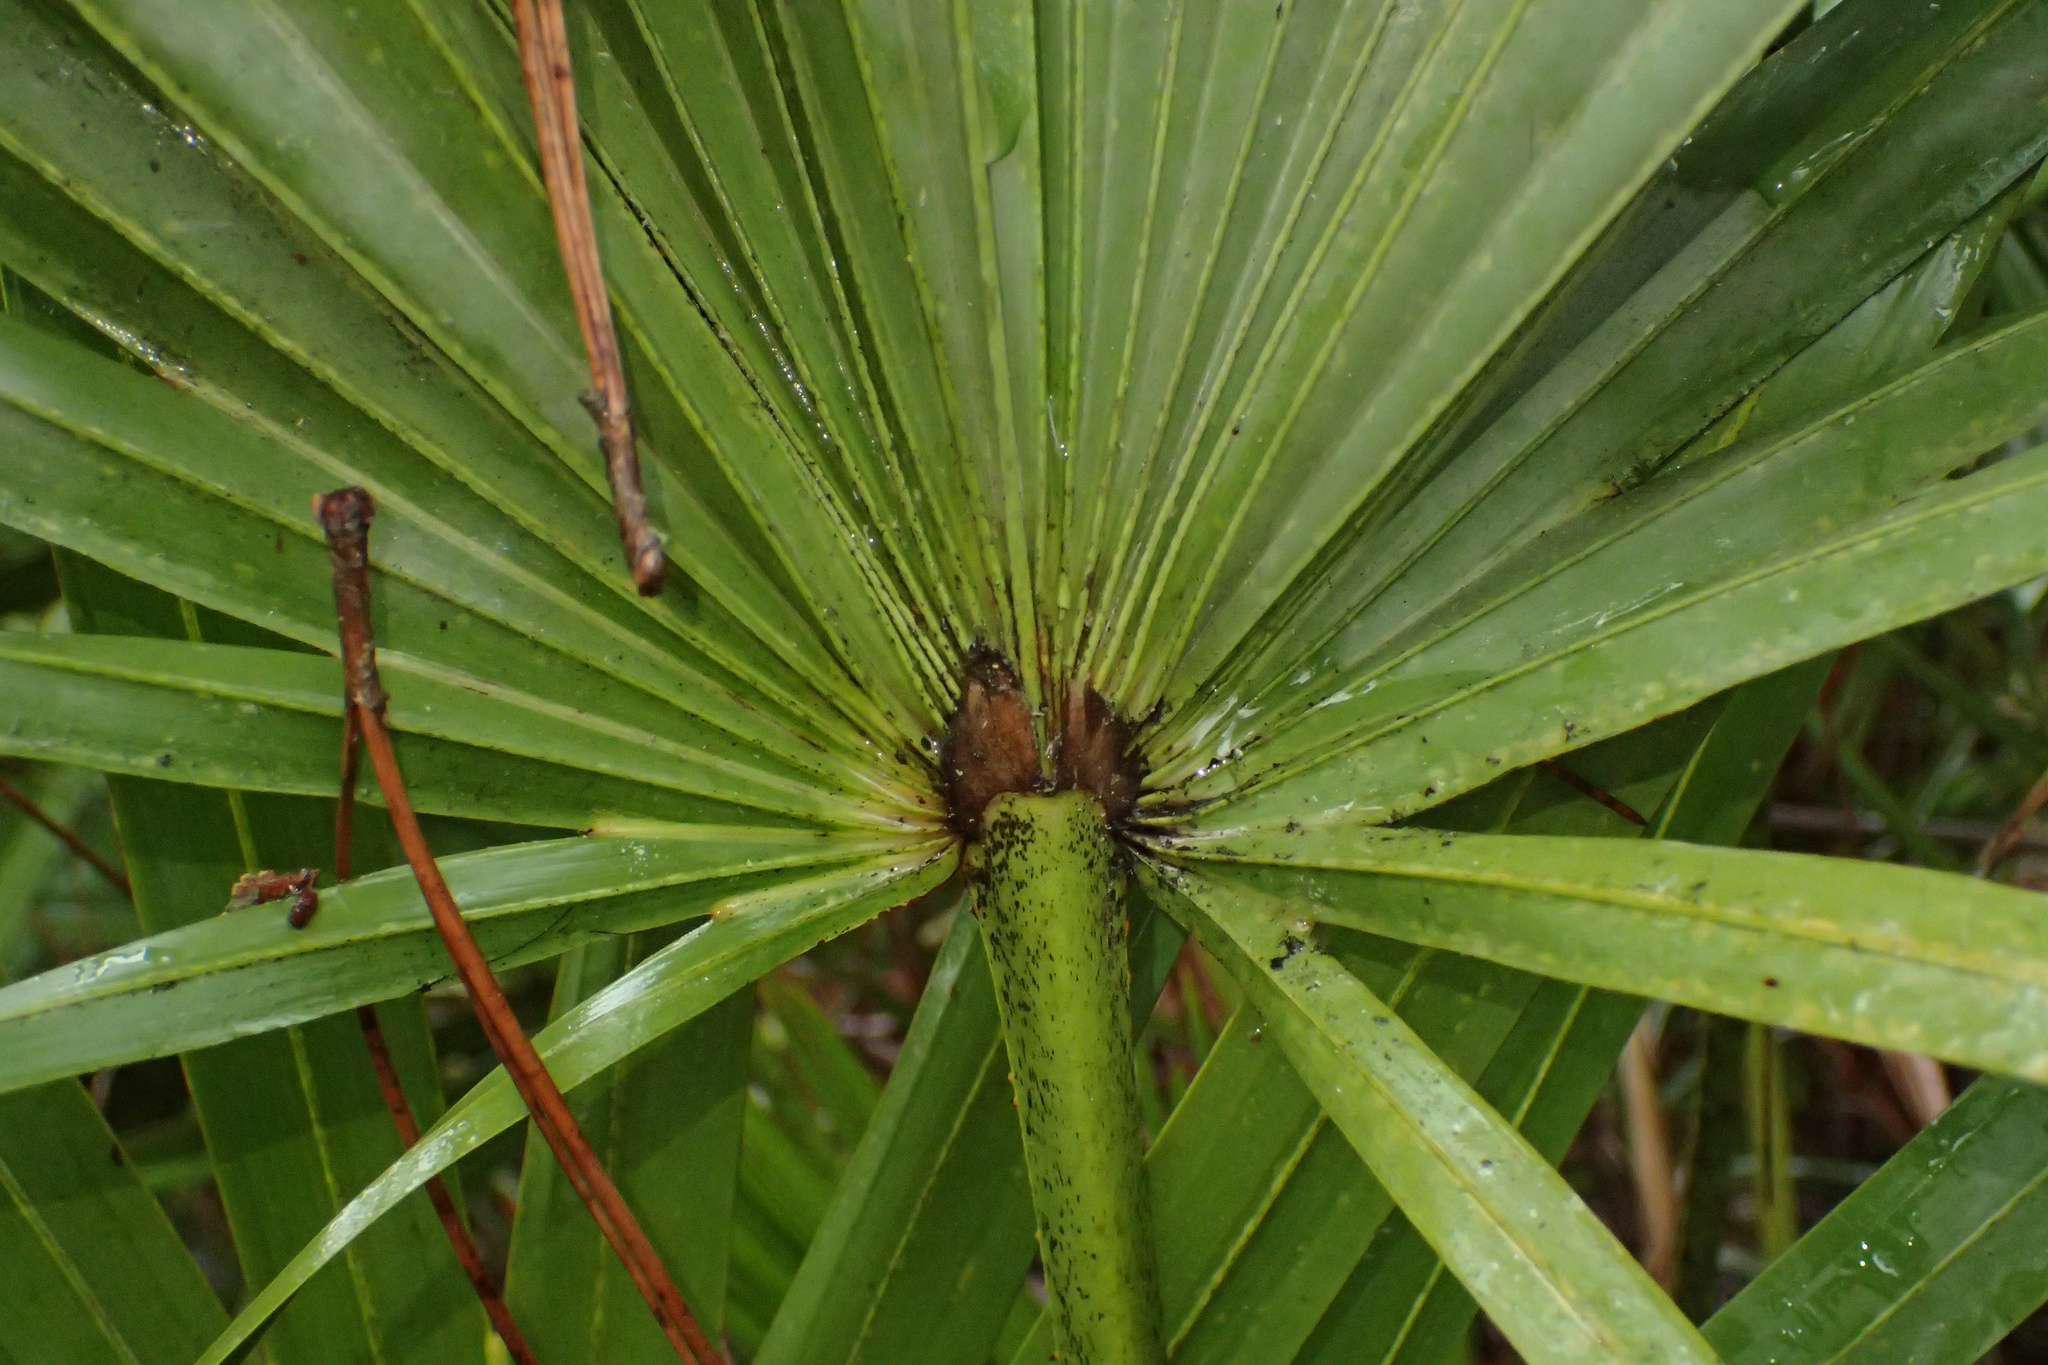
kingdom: Plantae
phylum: Tracheophyta
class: Liliopsida
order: Arecales
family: Arecaceae
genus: Serenoa
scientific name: Serenoa repens
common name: Saw-palmetto
